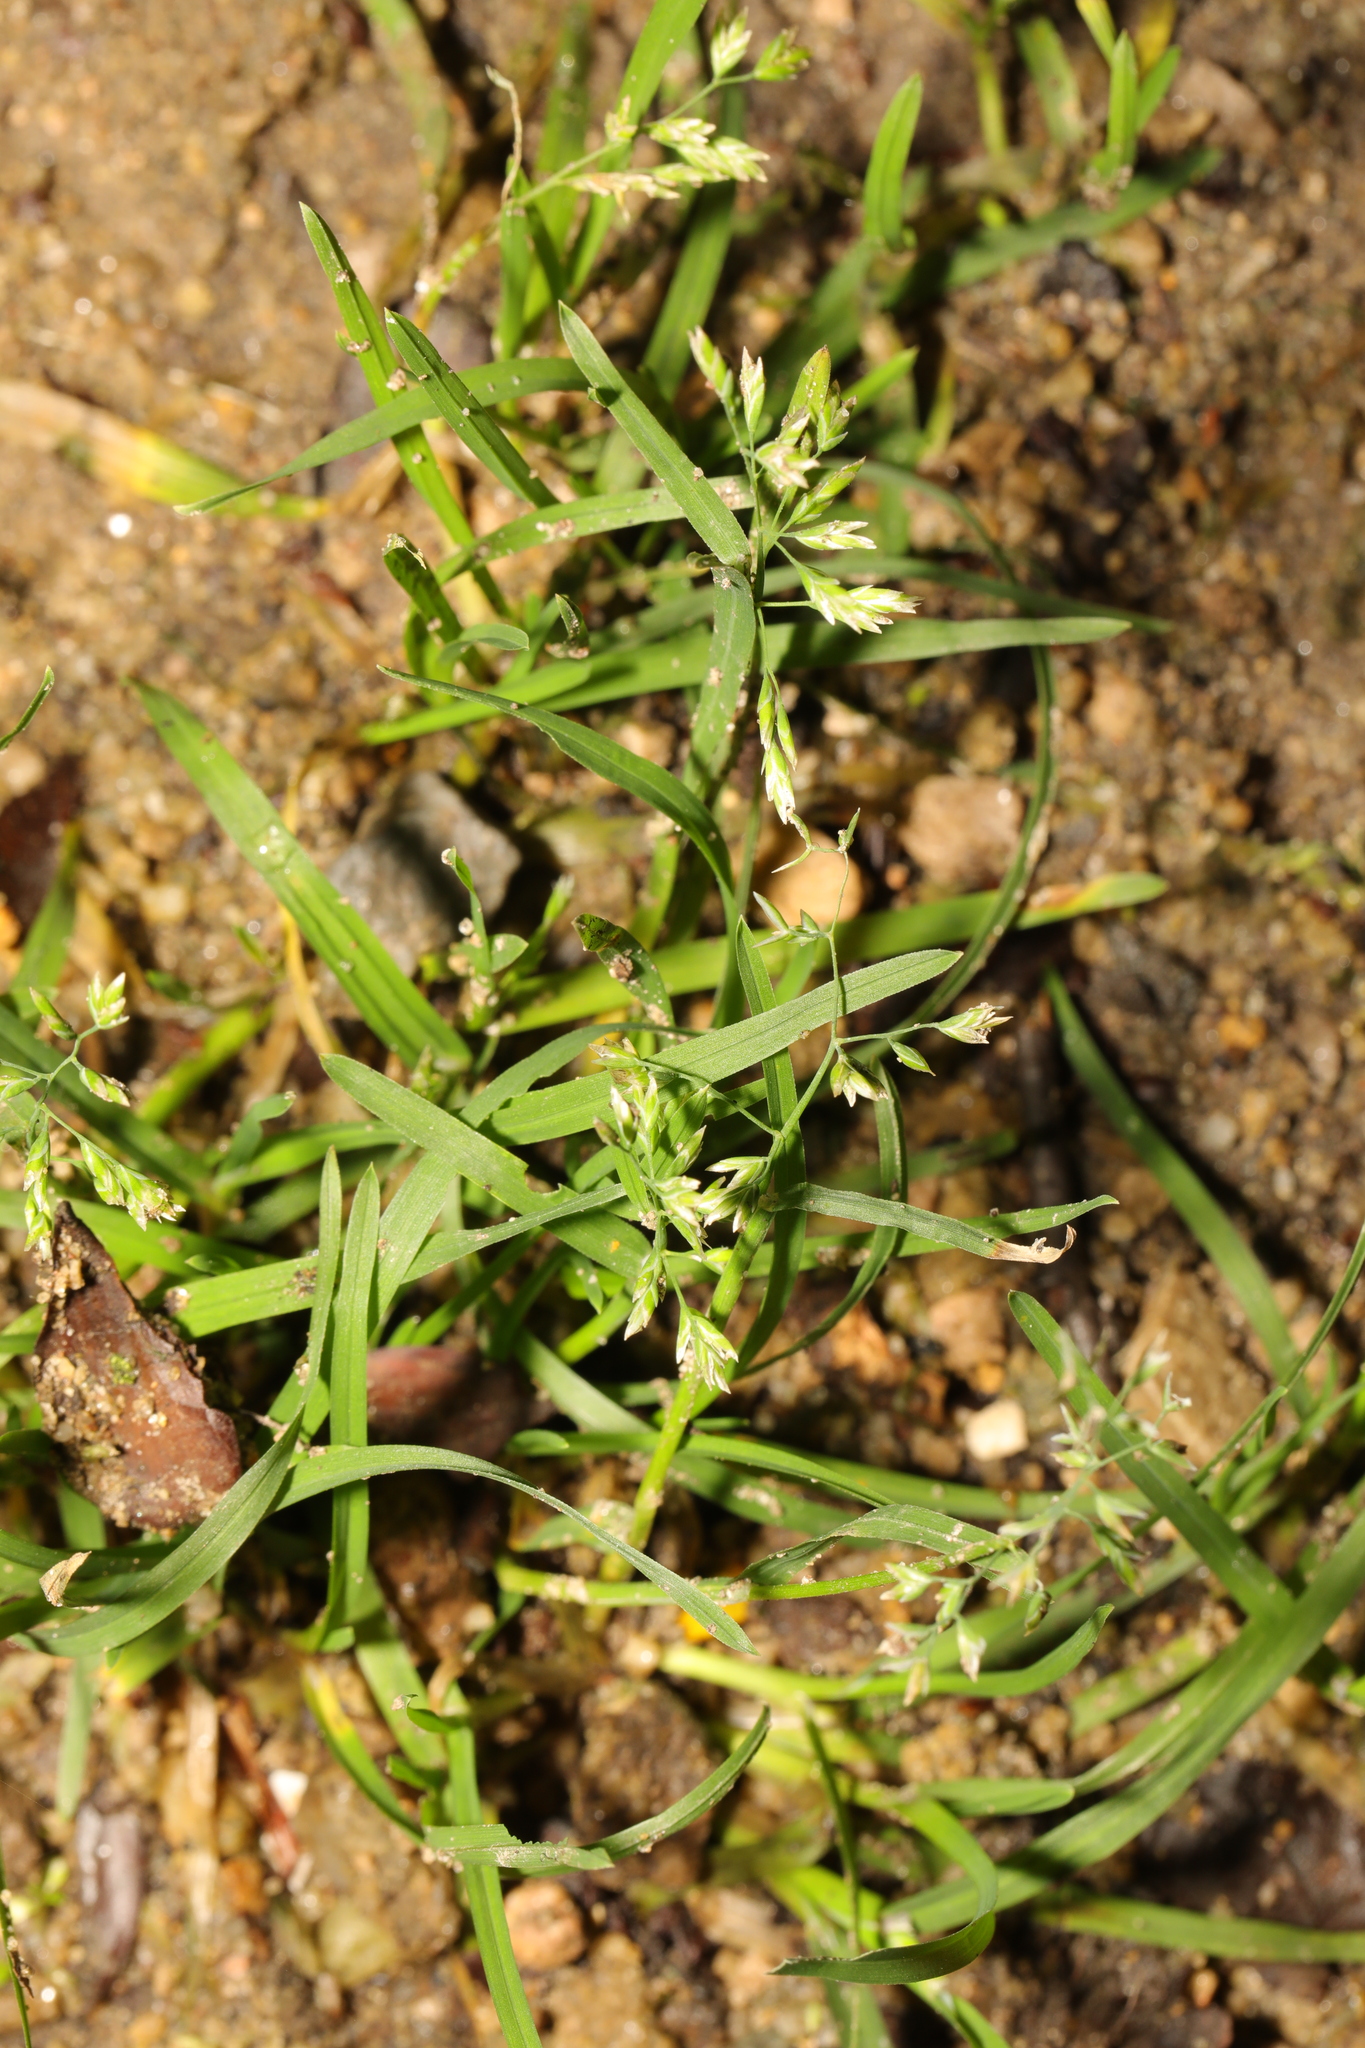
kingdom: Plantae
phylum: Tracheophyta
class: Liliopsida
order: Poales
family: Poaceae
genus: Poa
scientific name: Poa annua
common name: Annual bluegrass
